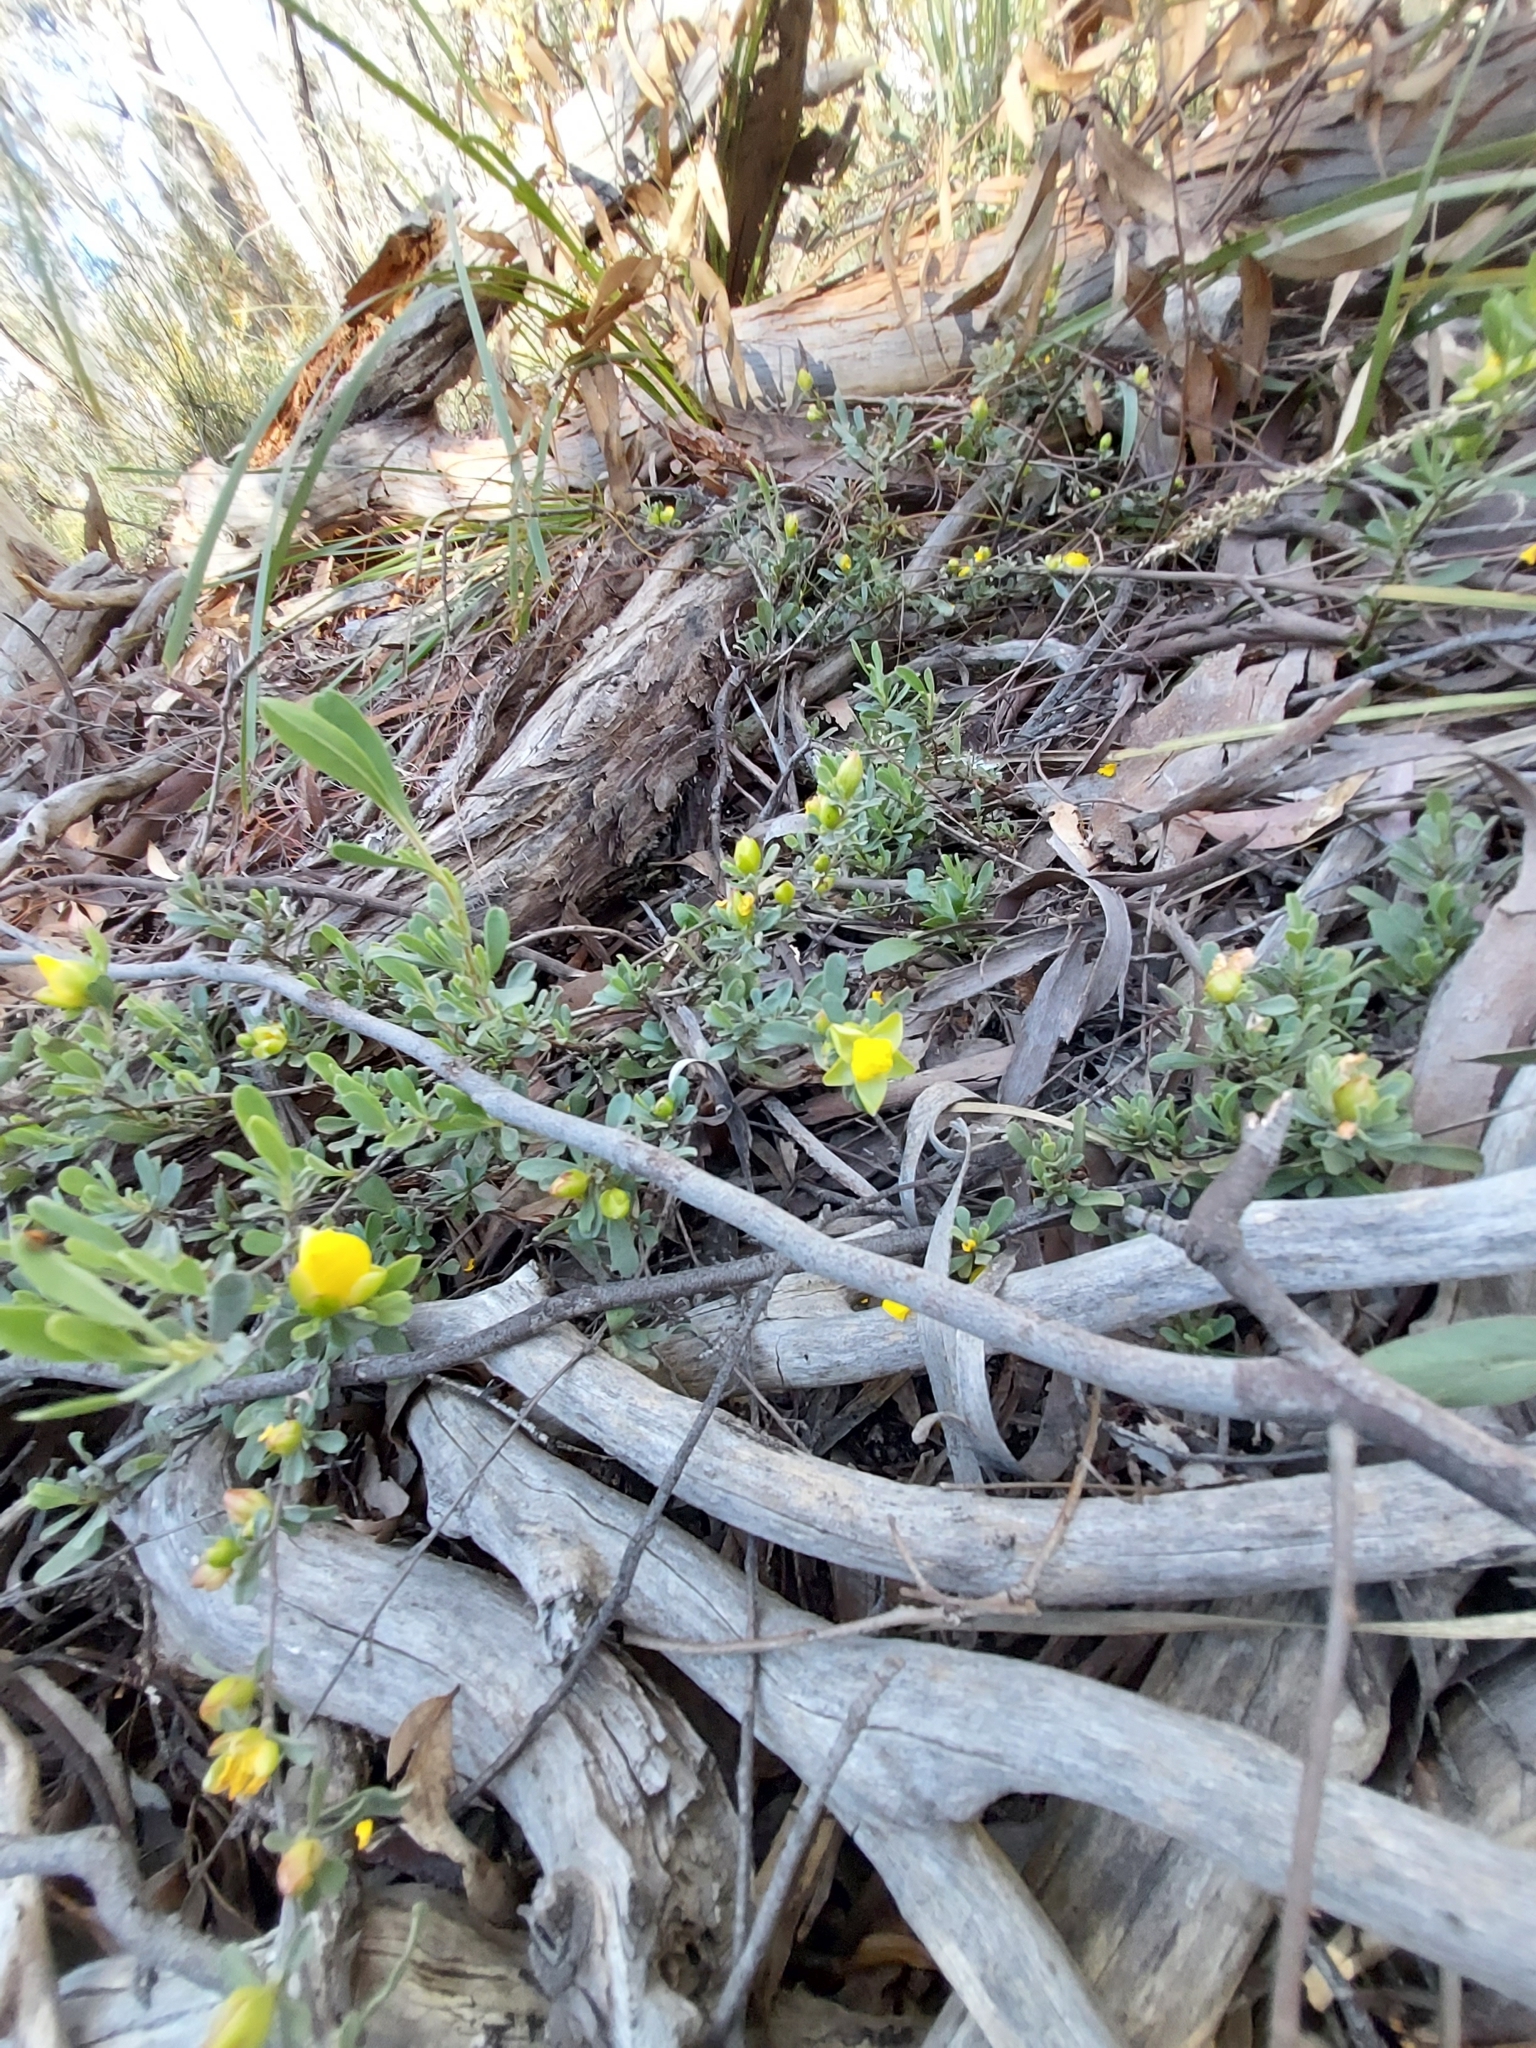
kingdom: Plantae
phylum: Tracheophyta
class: Magnoliopsida
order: Dilleniales
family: Dilleniaceae
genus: Hibbertia
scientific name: Hibbertia obtusifolia
